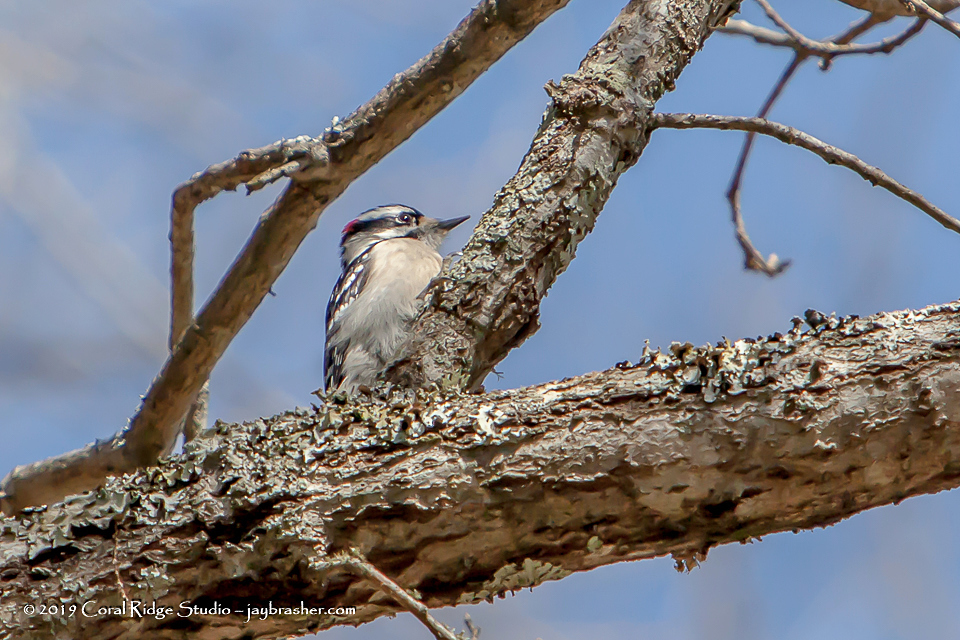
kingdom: Animalia
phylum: Chordata
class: Aves
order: Piciformes
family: Picidae
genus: Dryobates
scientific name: Dryobates pubescens
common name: Downy woodpecker
